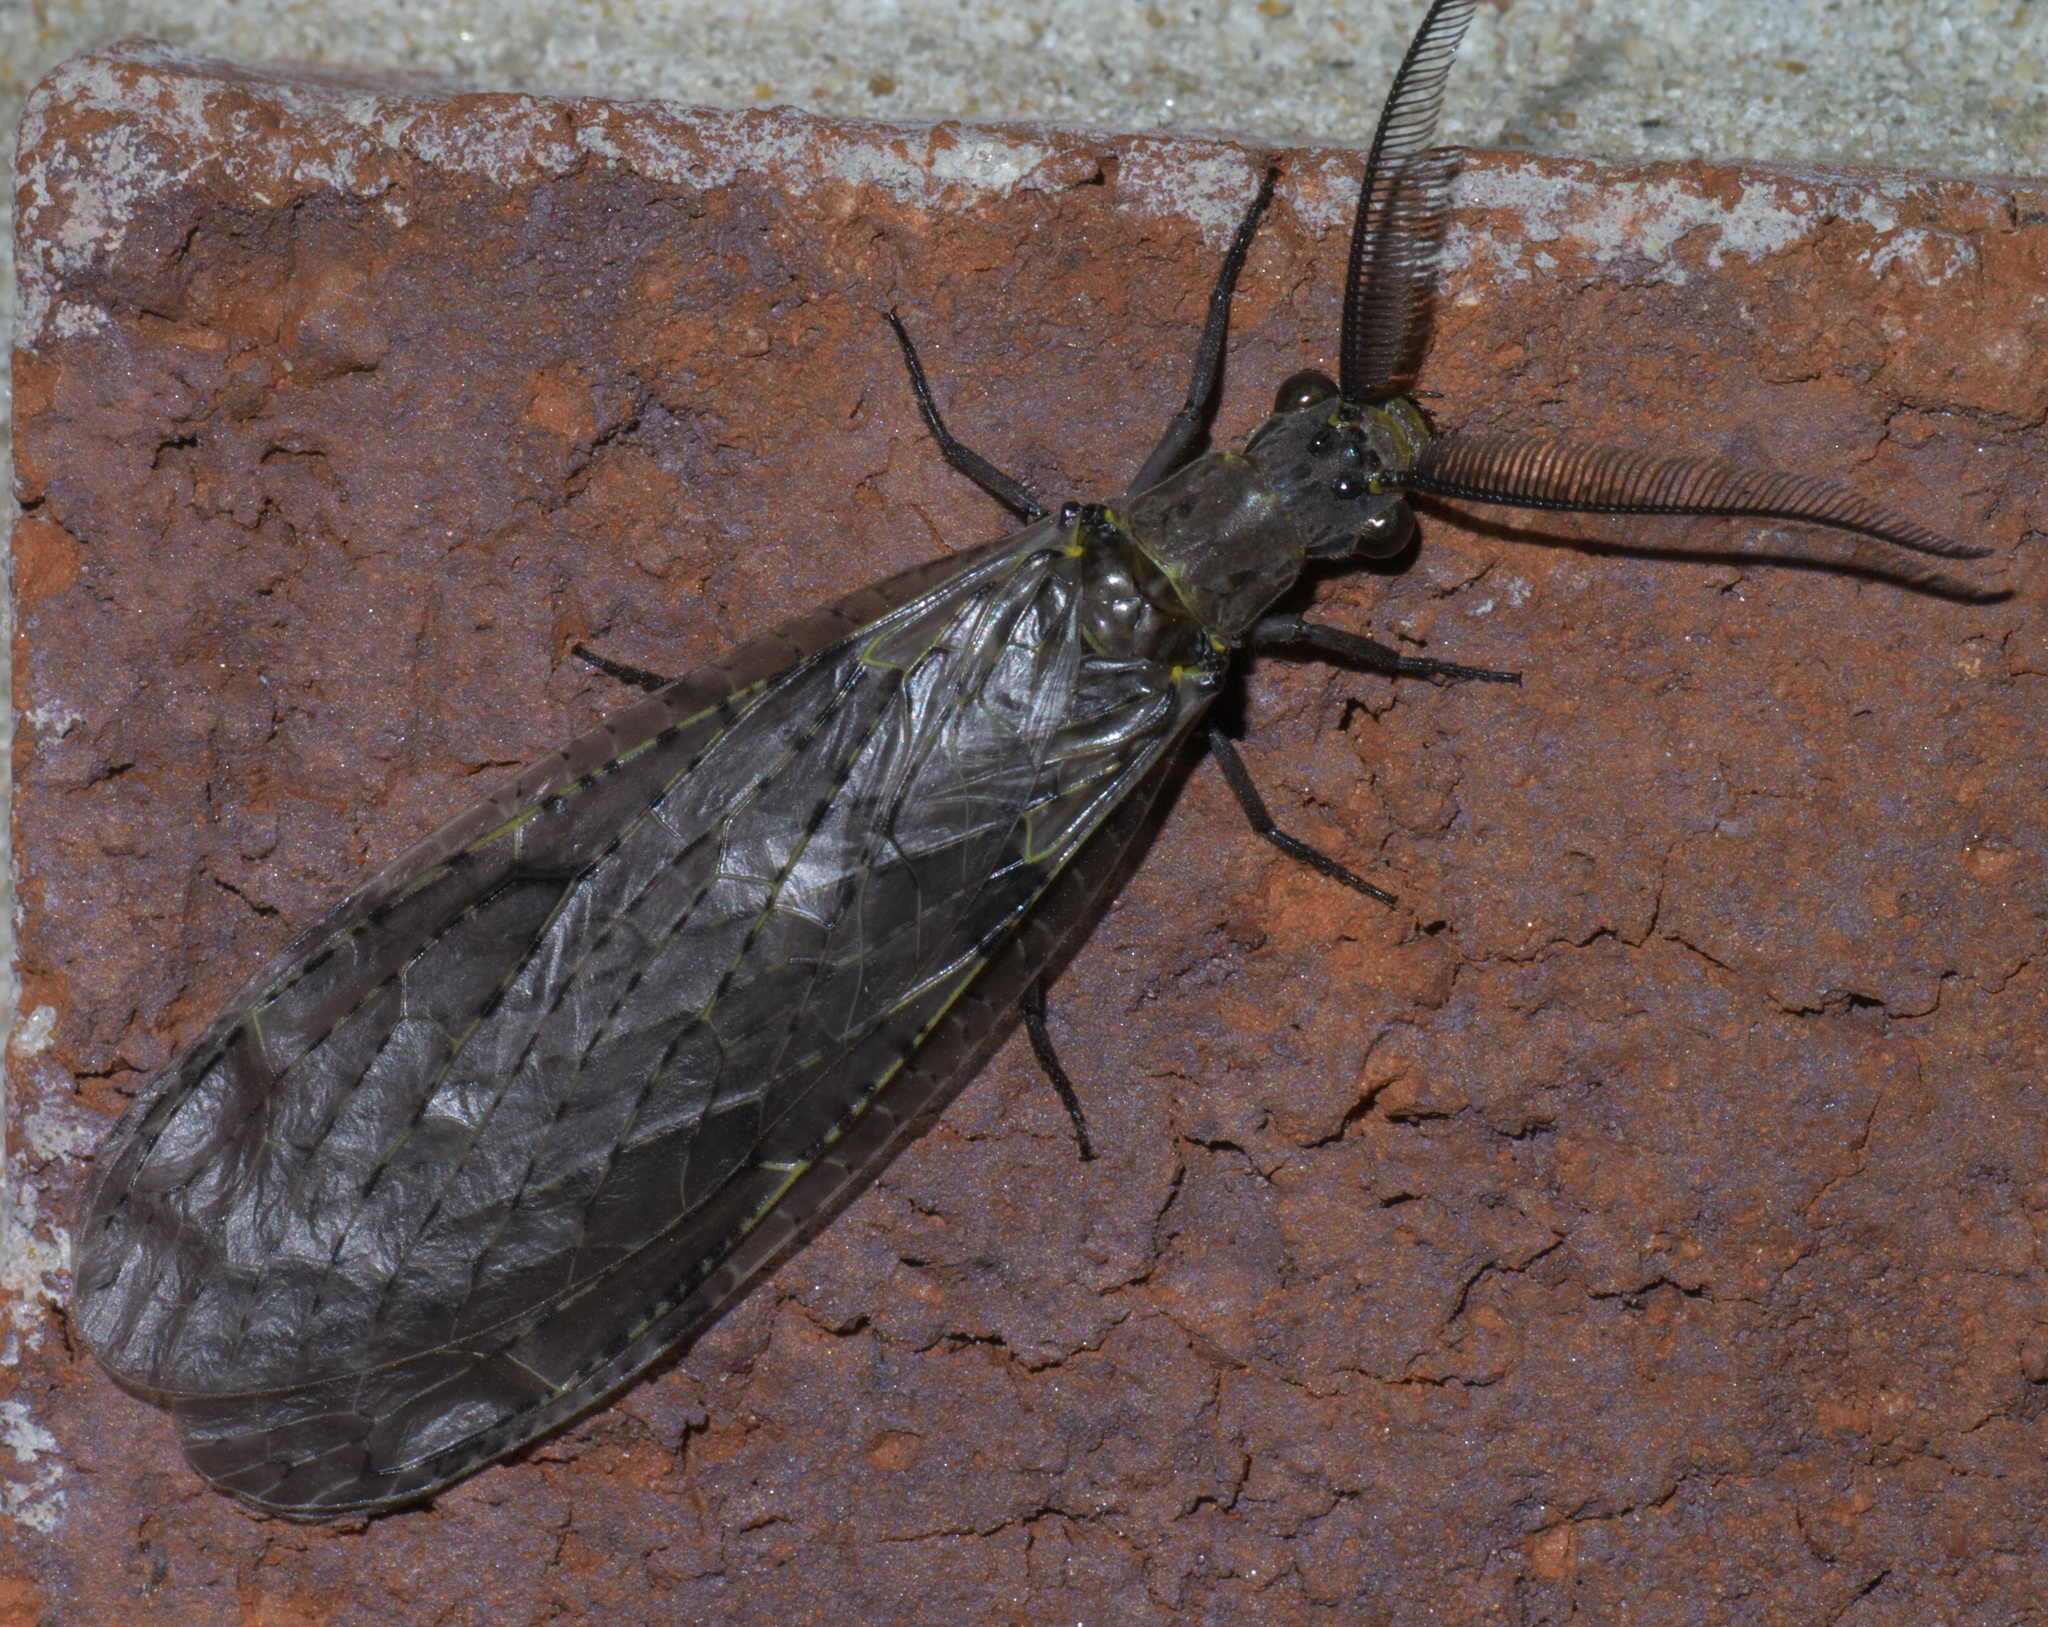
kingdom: Animalia
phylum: Arthropoda
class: Insecta
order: Megaloptera
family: Corydalidae
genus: Chauliodes
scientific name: Chauliodes rastricornis
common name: Spring fishfly
